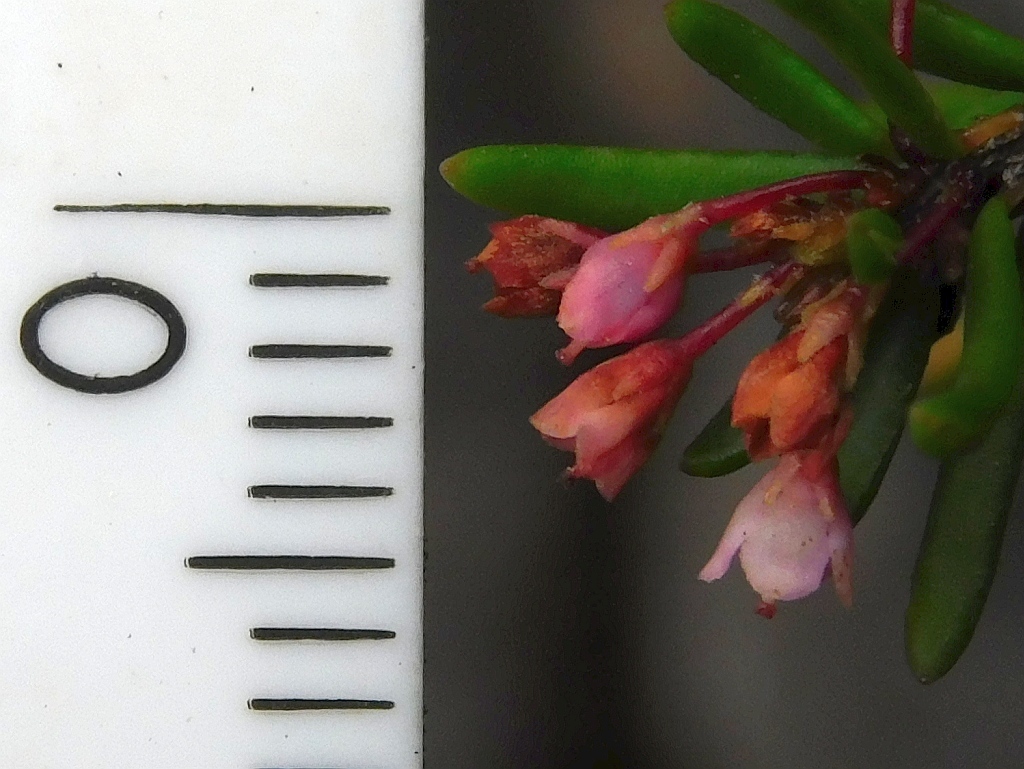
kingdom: Plantae
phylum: Tracheophyta
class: Magnoliopsida
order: Ericales
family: Ericaceae
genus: Erica
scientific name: Erica tenuicaulis
